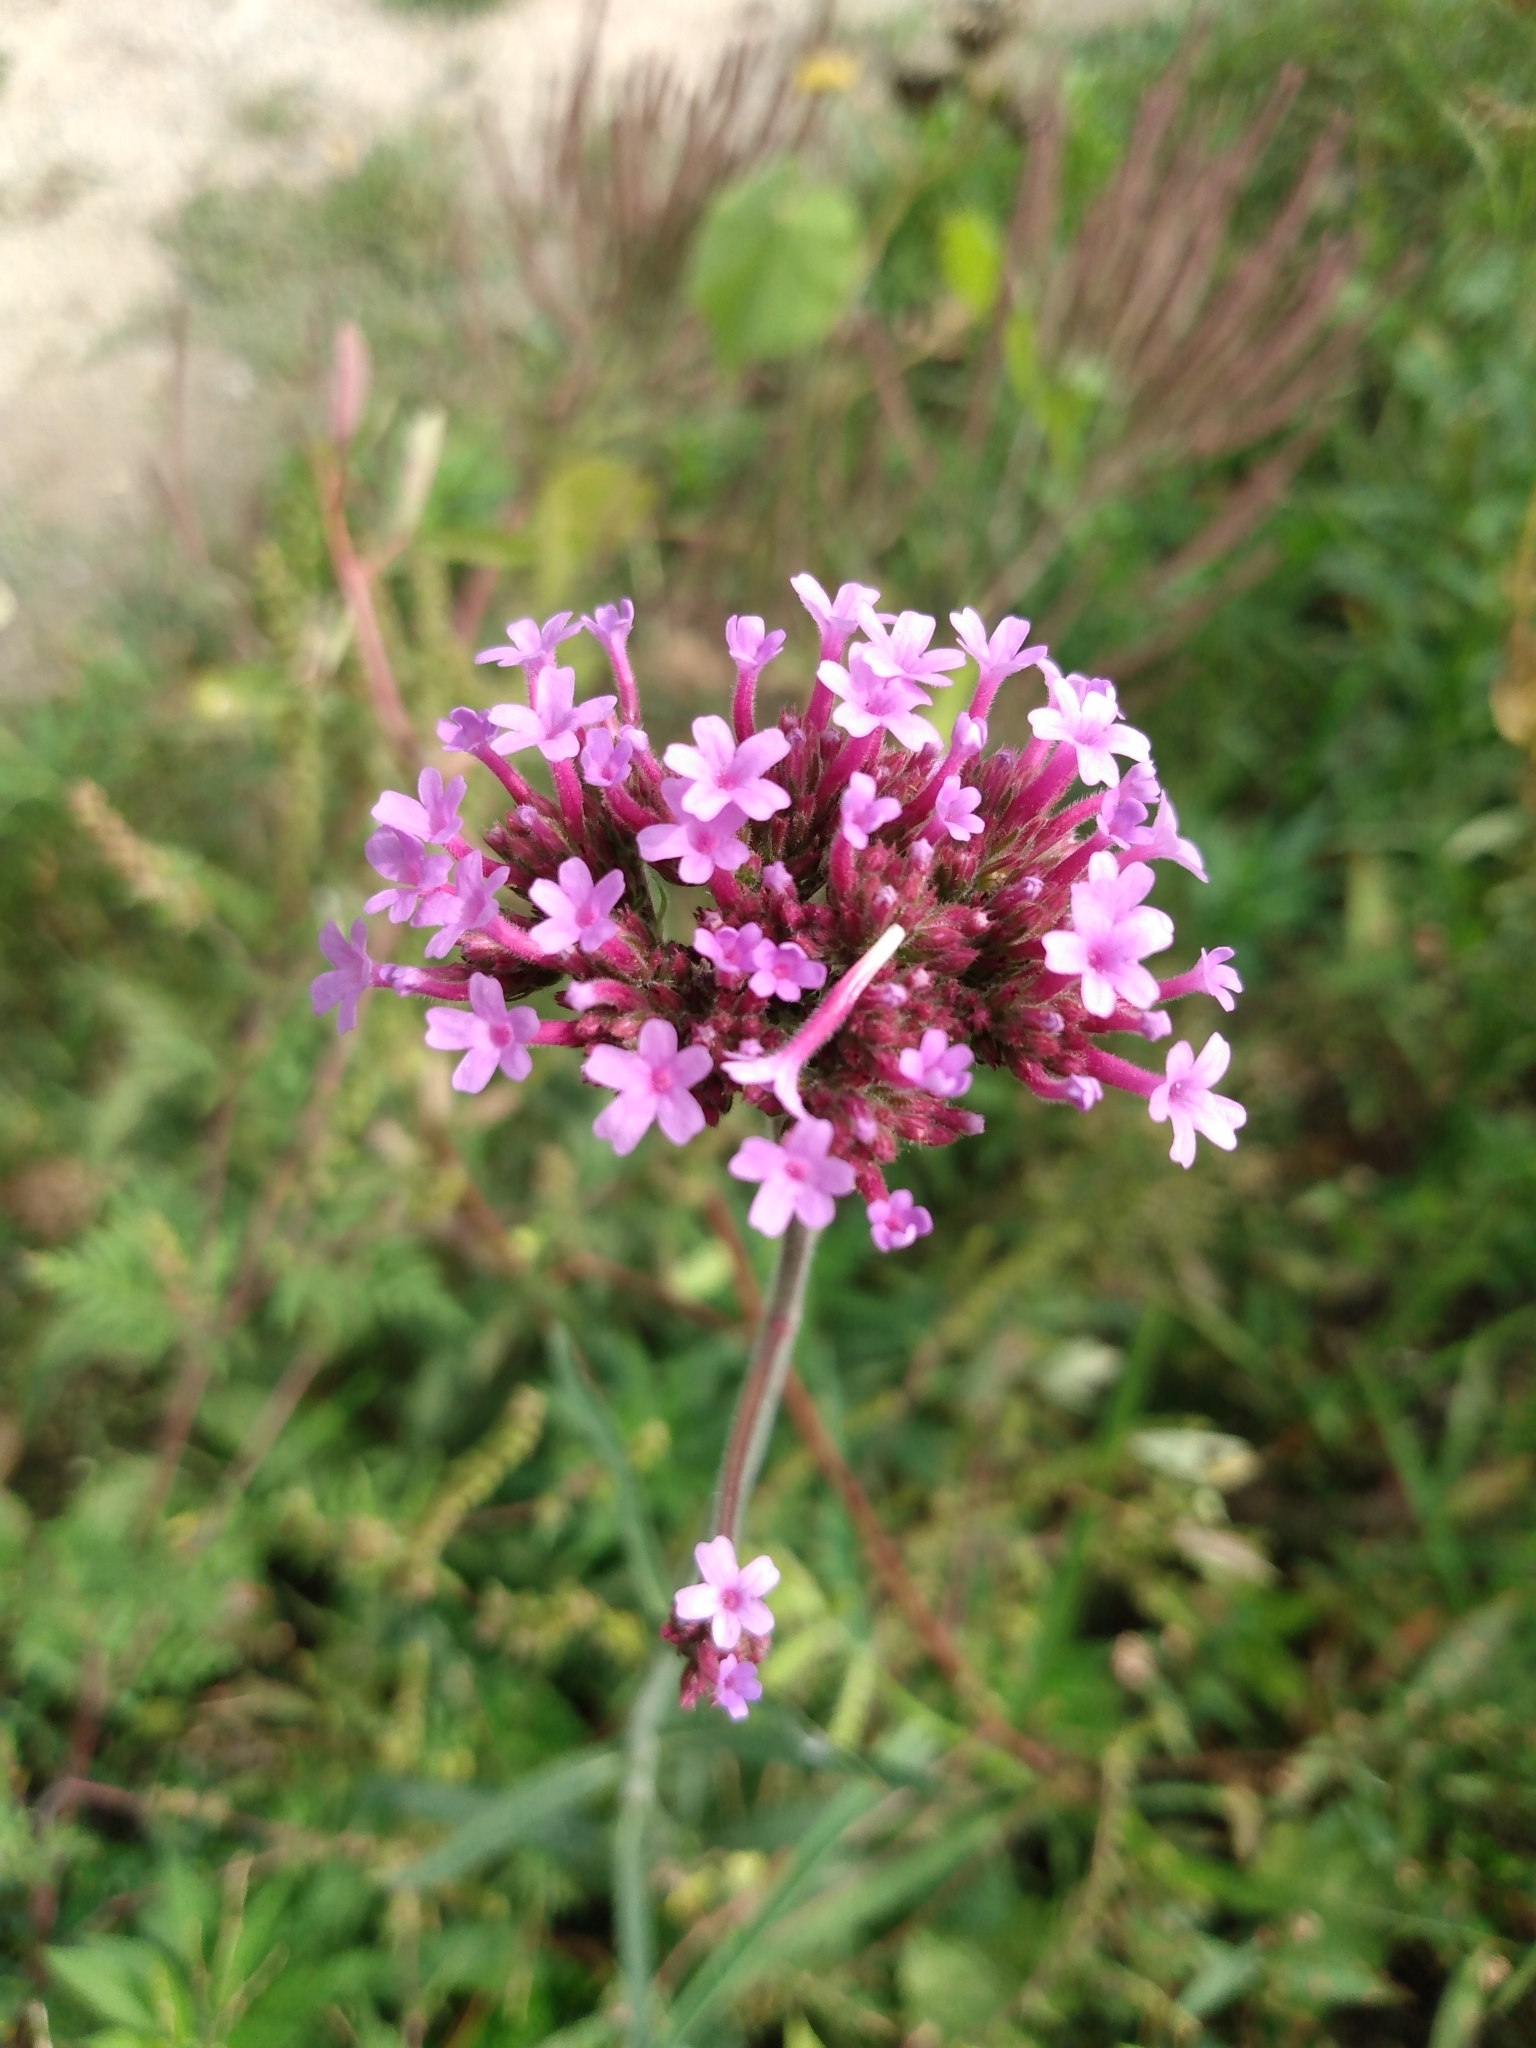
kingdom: Plantae
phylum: Tracheophyta
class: Magnoliopsida
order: Lamiales
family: Verbenaceae
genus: Verbena
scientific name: Verbena bonariensis
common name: Purpletop vervain
